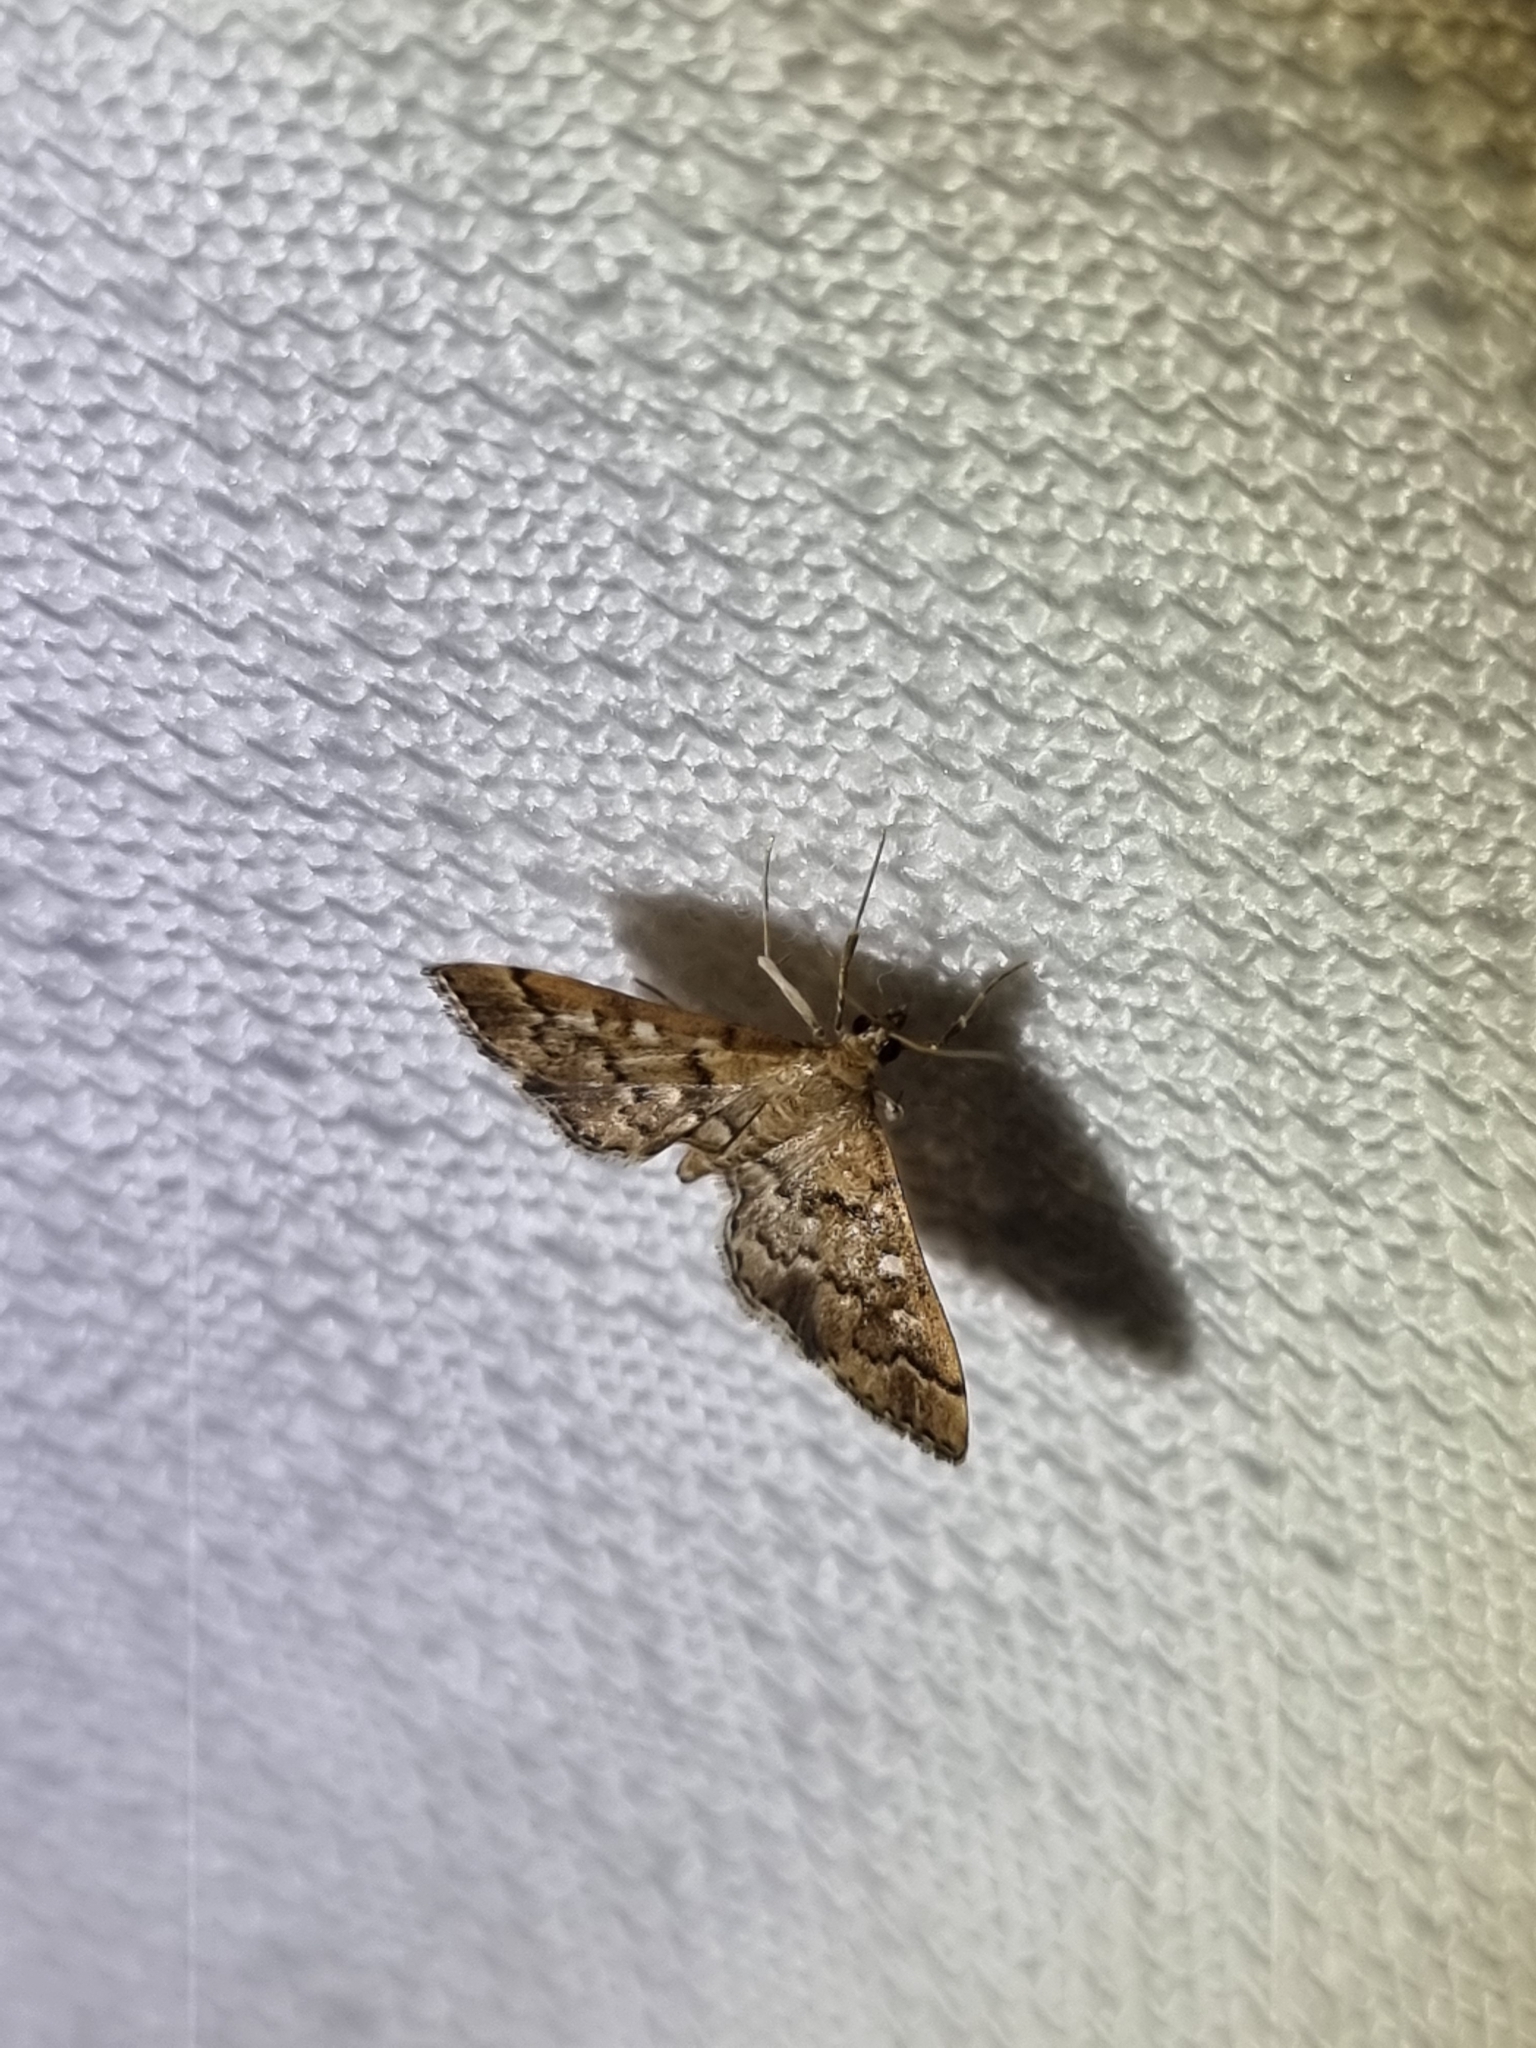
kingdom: Animalia
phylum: Arthropoda
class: Insecta
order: Lepidoptera
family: Crambidae
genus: Nacoleia
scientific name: Nacoleia rhoeoalis
